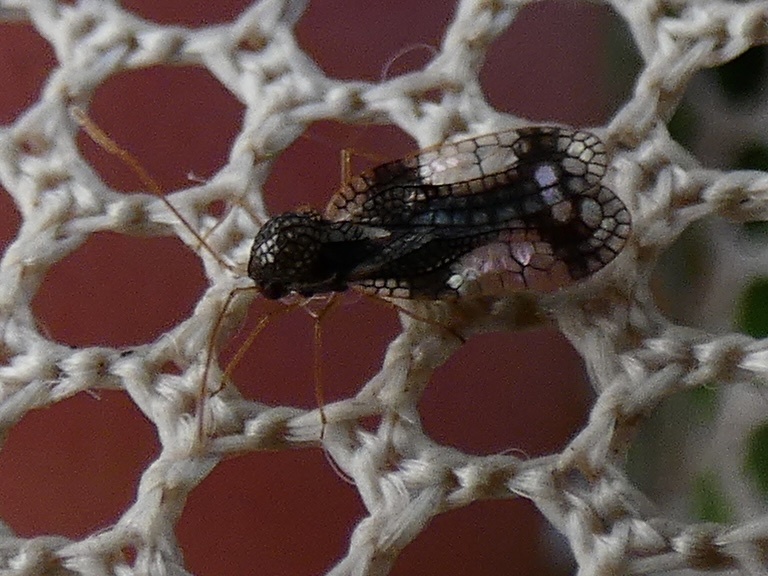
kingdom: Animalia
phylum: Arthropoda
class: Insecta
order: Hemiptera
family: Tingidae
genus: Stephanitis
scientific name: Stephanitis takeyai
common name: Andromeda lacebug
